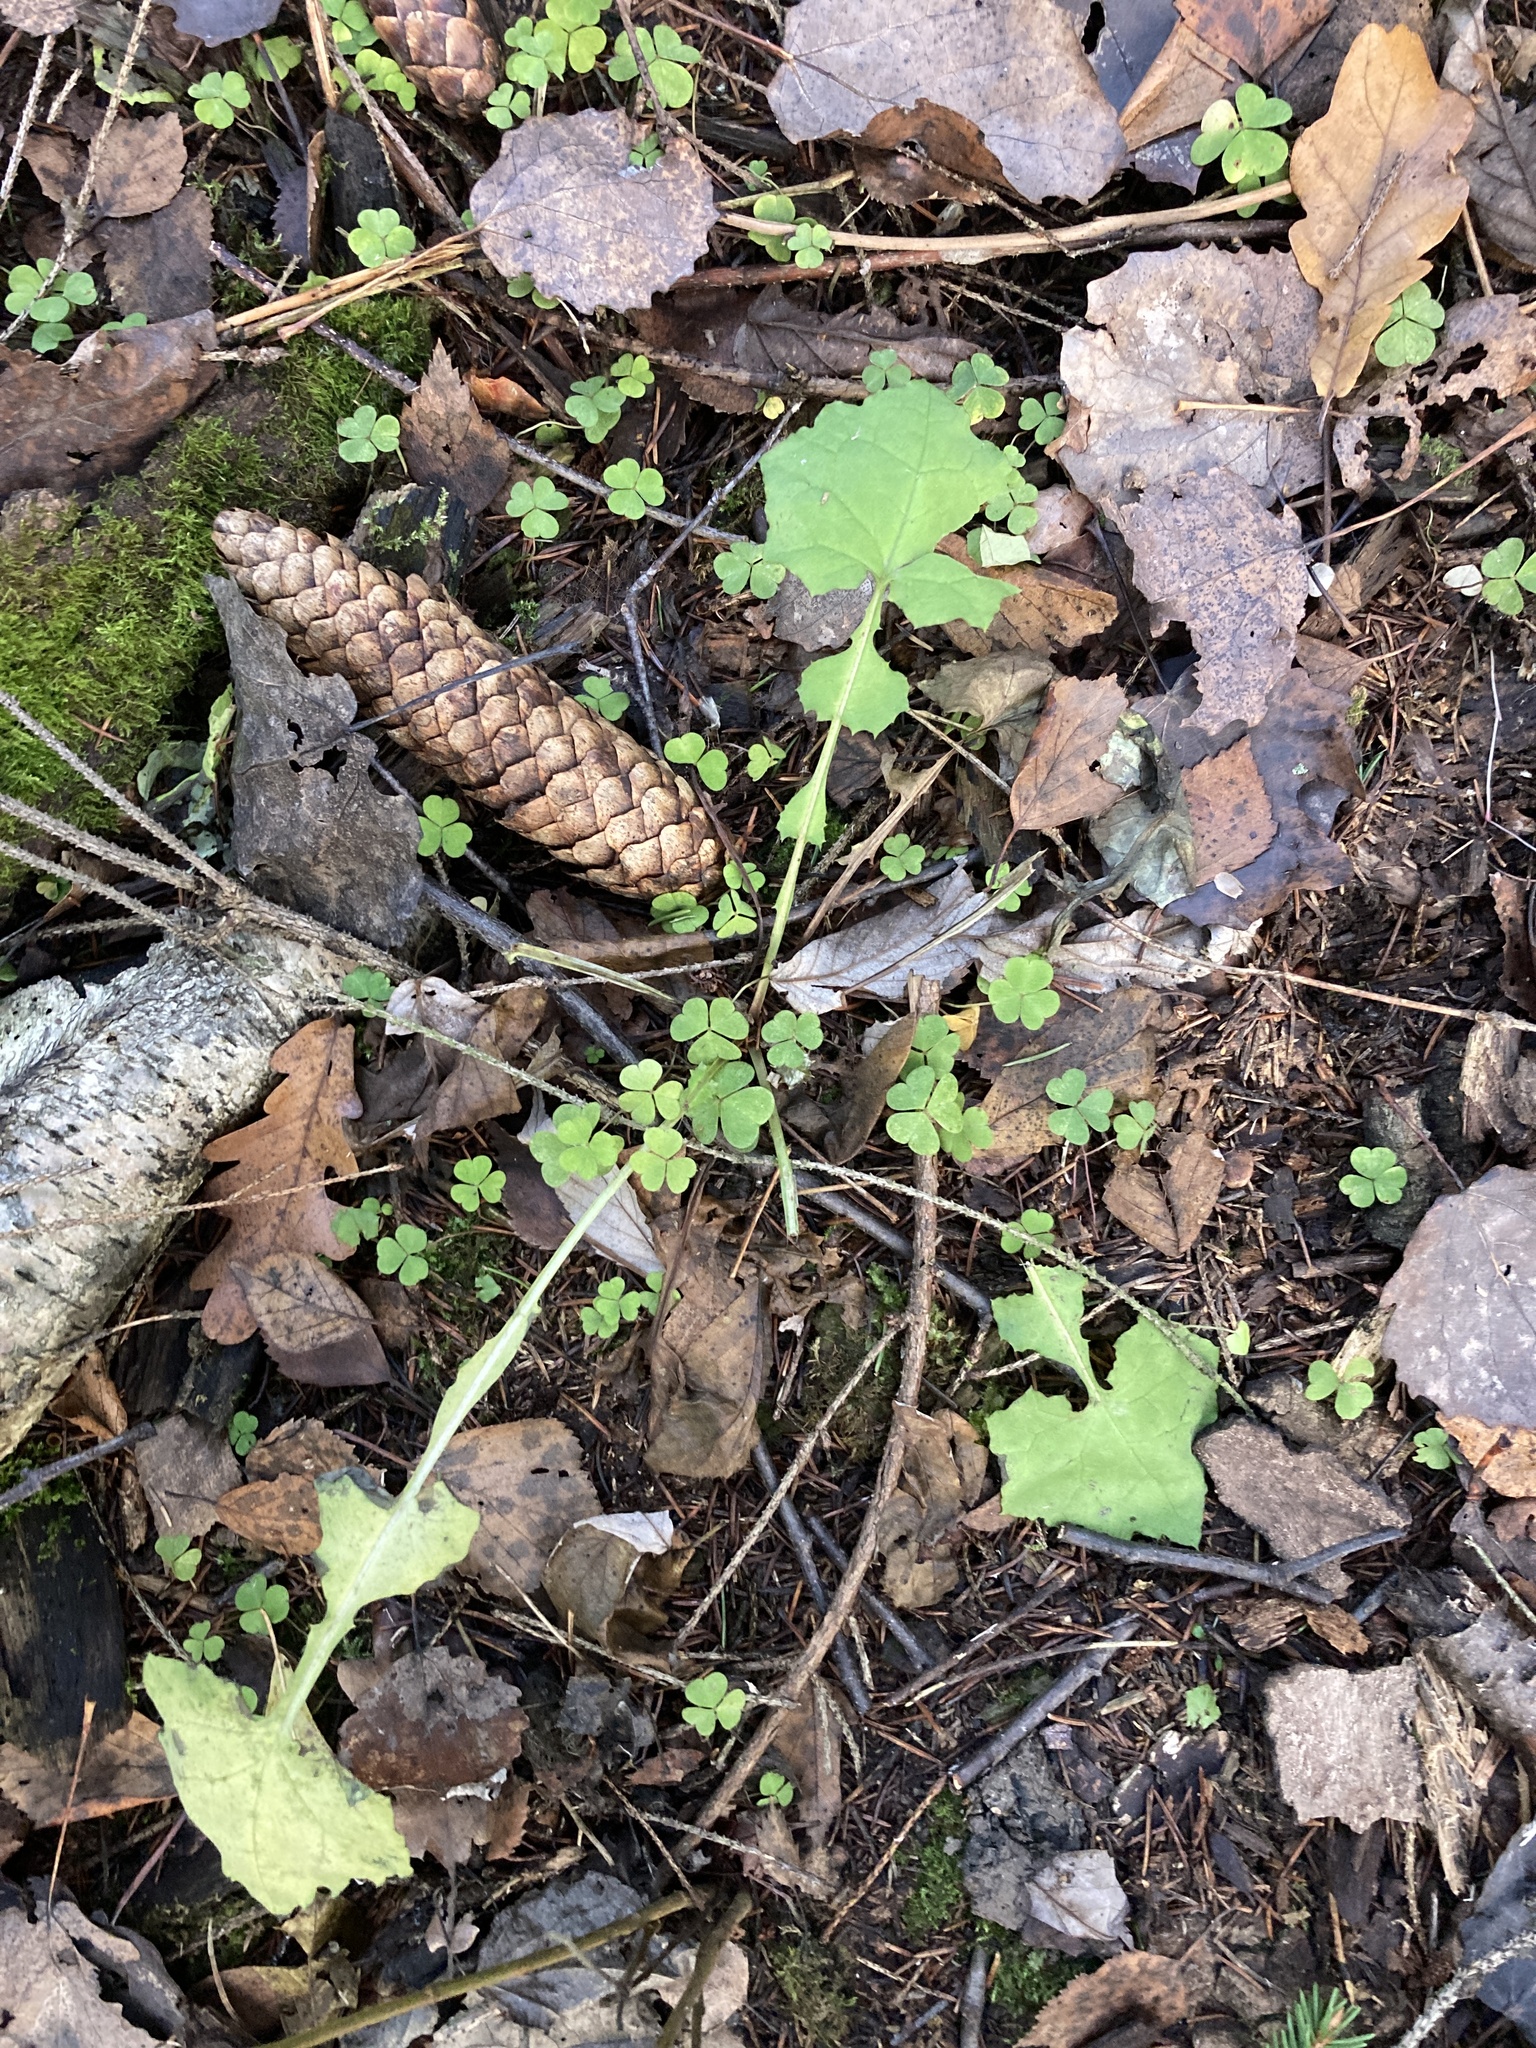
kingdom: Plantae
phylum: Tracheophyta
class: Magnoliopsida
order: Asterales
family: Asteraceae
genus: Mycelis
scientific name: Mycelis muralis
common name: Wall lettuce
